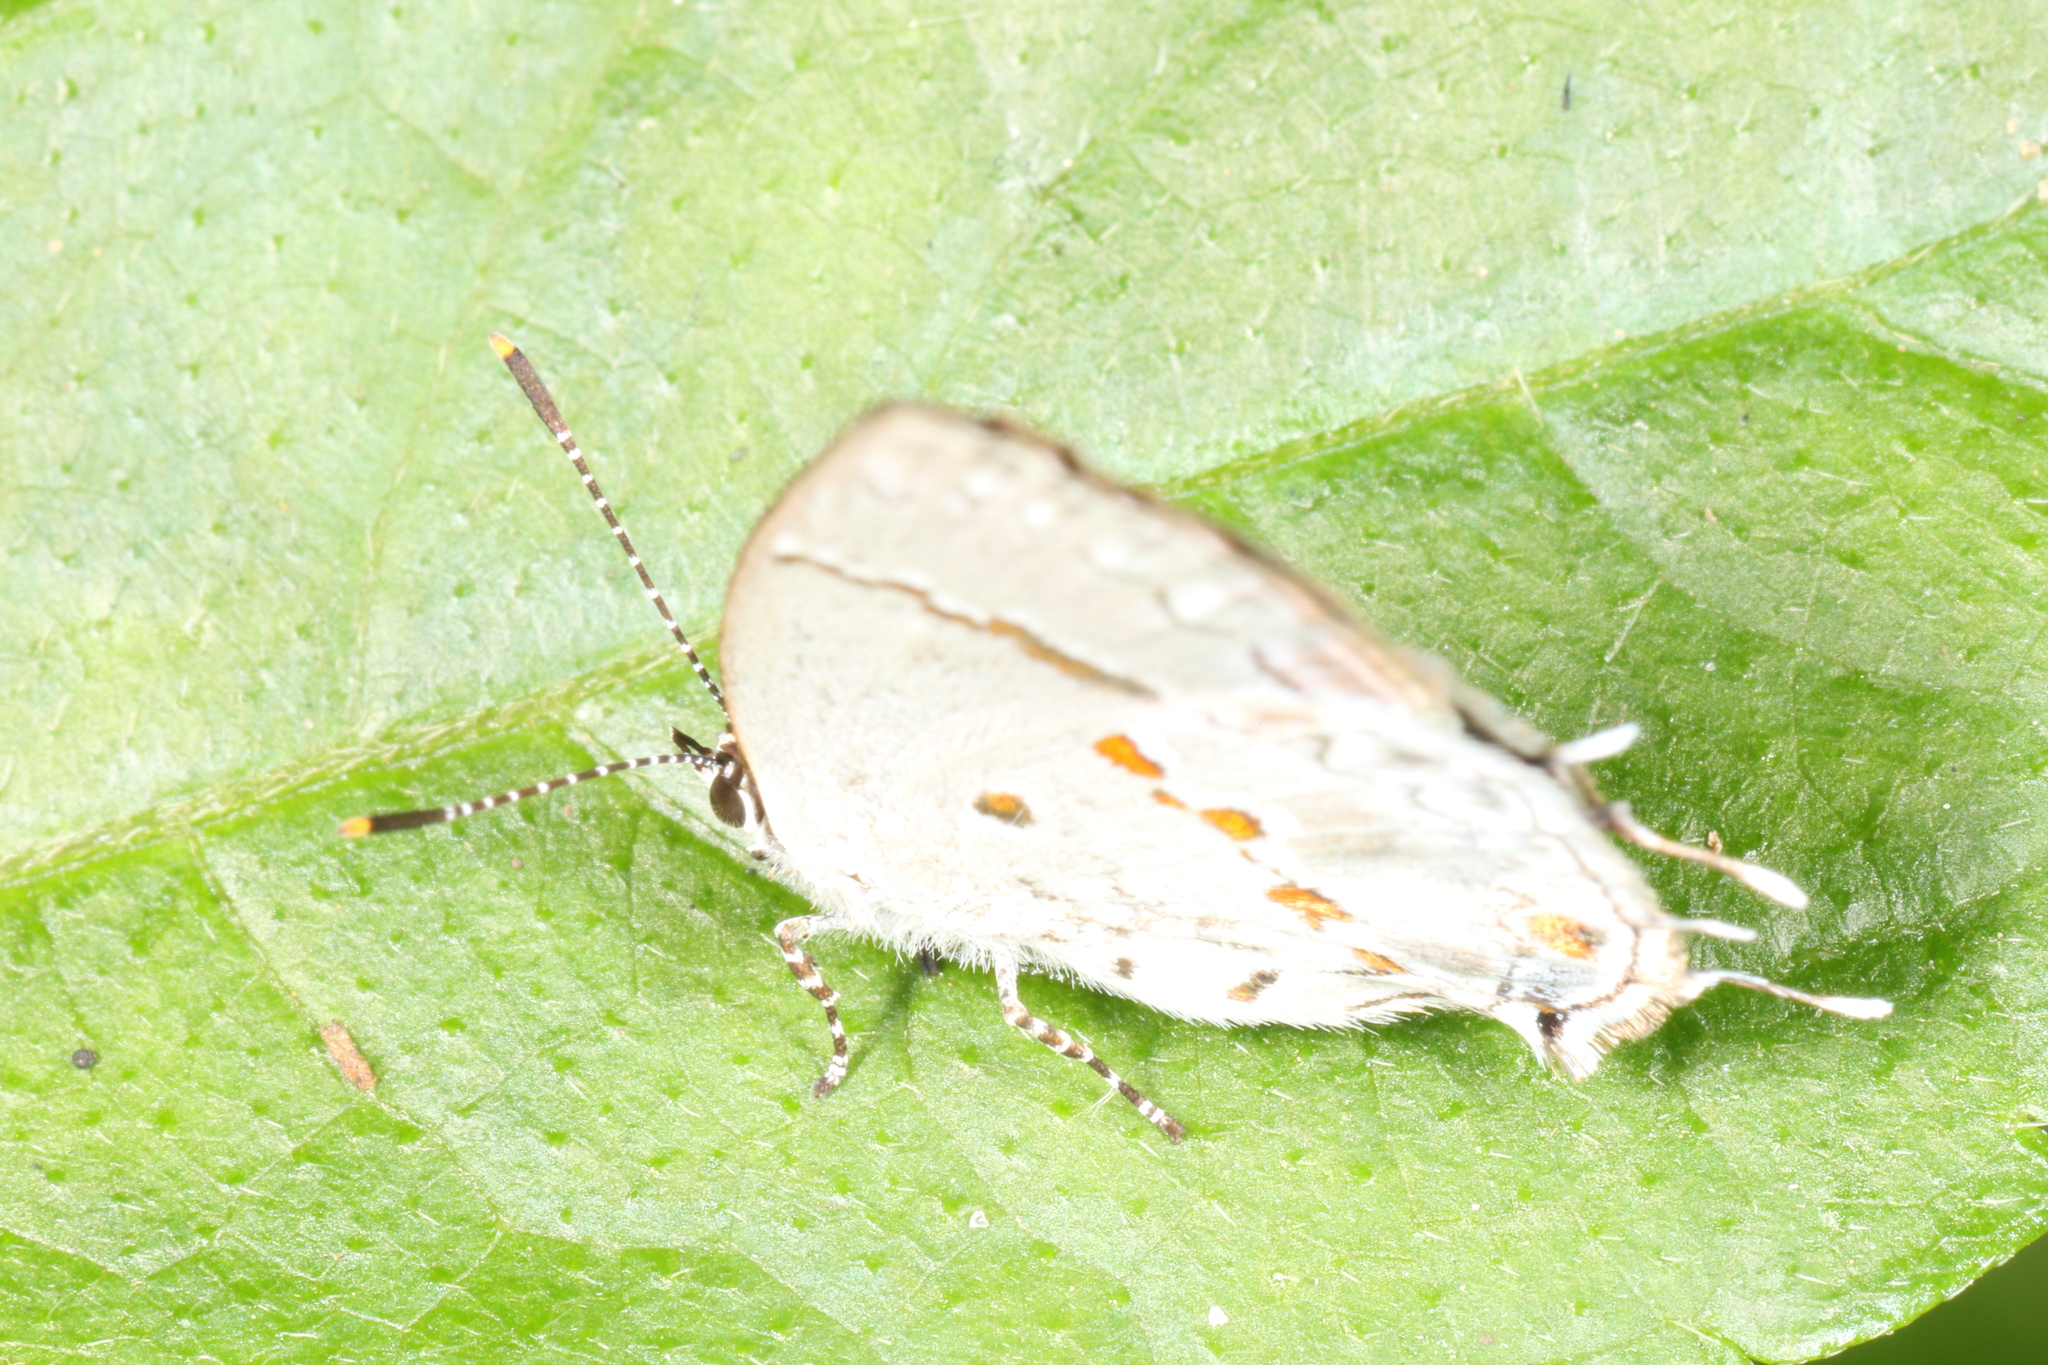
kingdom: Animalia
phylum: Arthropoda
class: Insecta
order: Lepidoptera
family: Lycaenidae
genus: Thecla
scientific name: Thecla celmus
